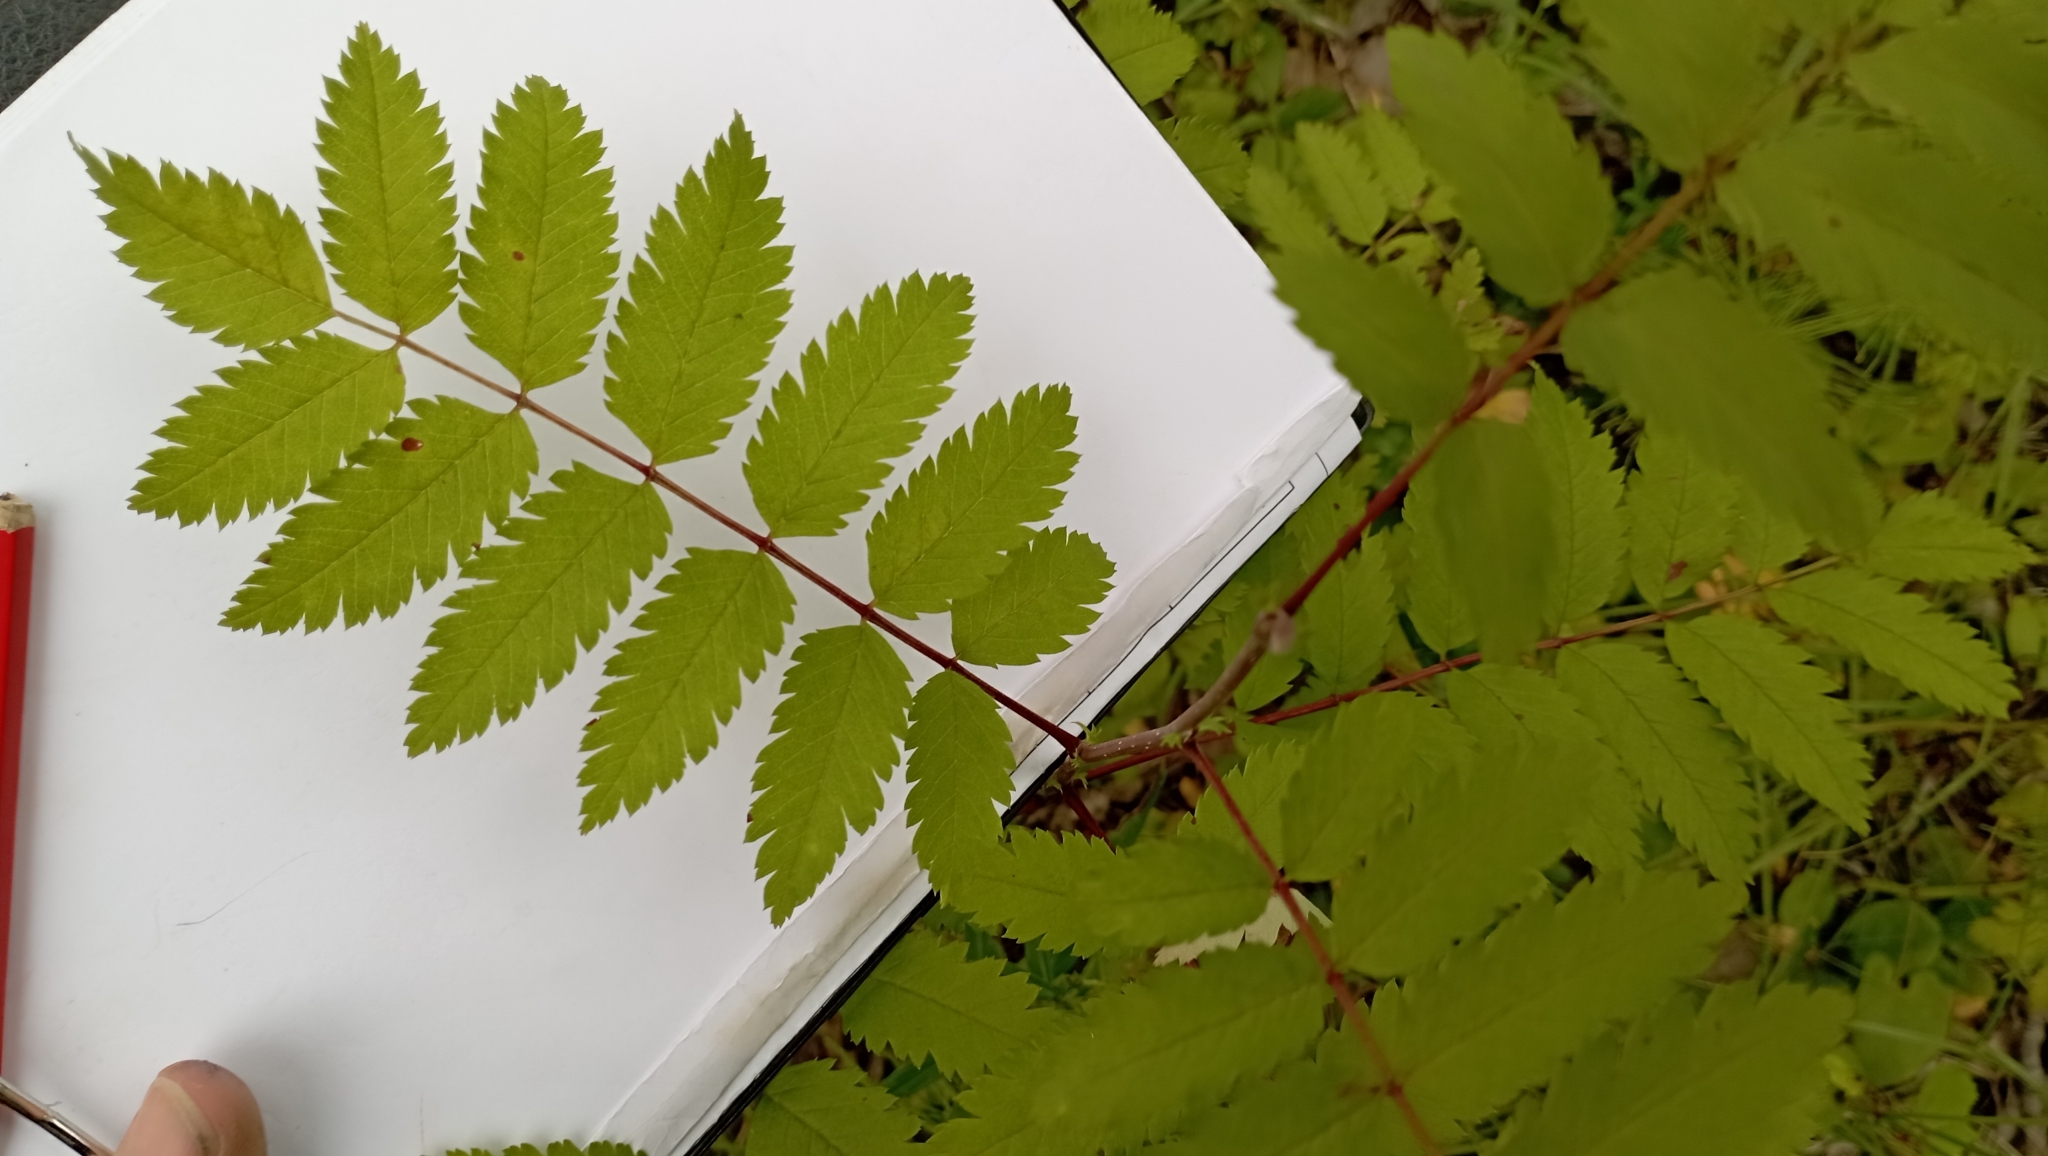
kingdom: Plantae
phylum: Tracheophyta
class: Magnoliopsida
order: Rosales
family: Rosaceae
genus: Sorbus
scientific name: Sorbus aucuparia
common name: Rowan
